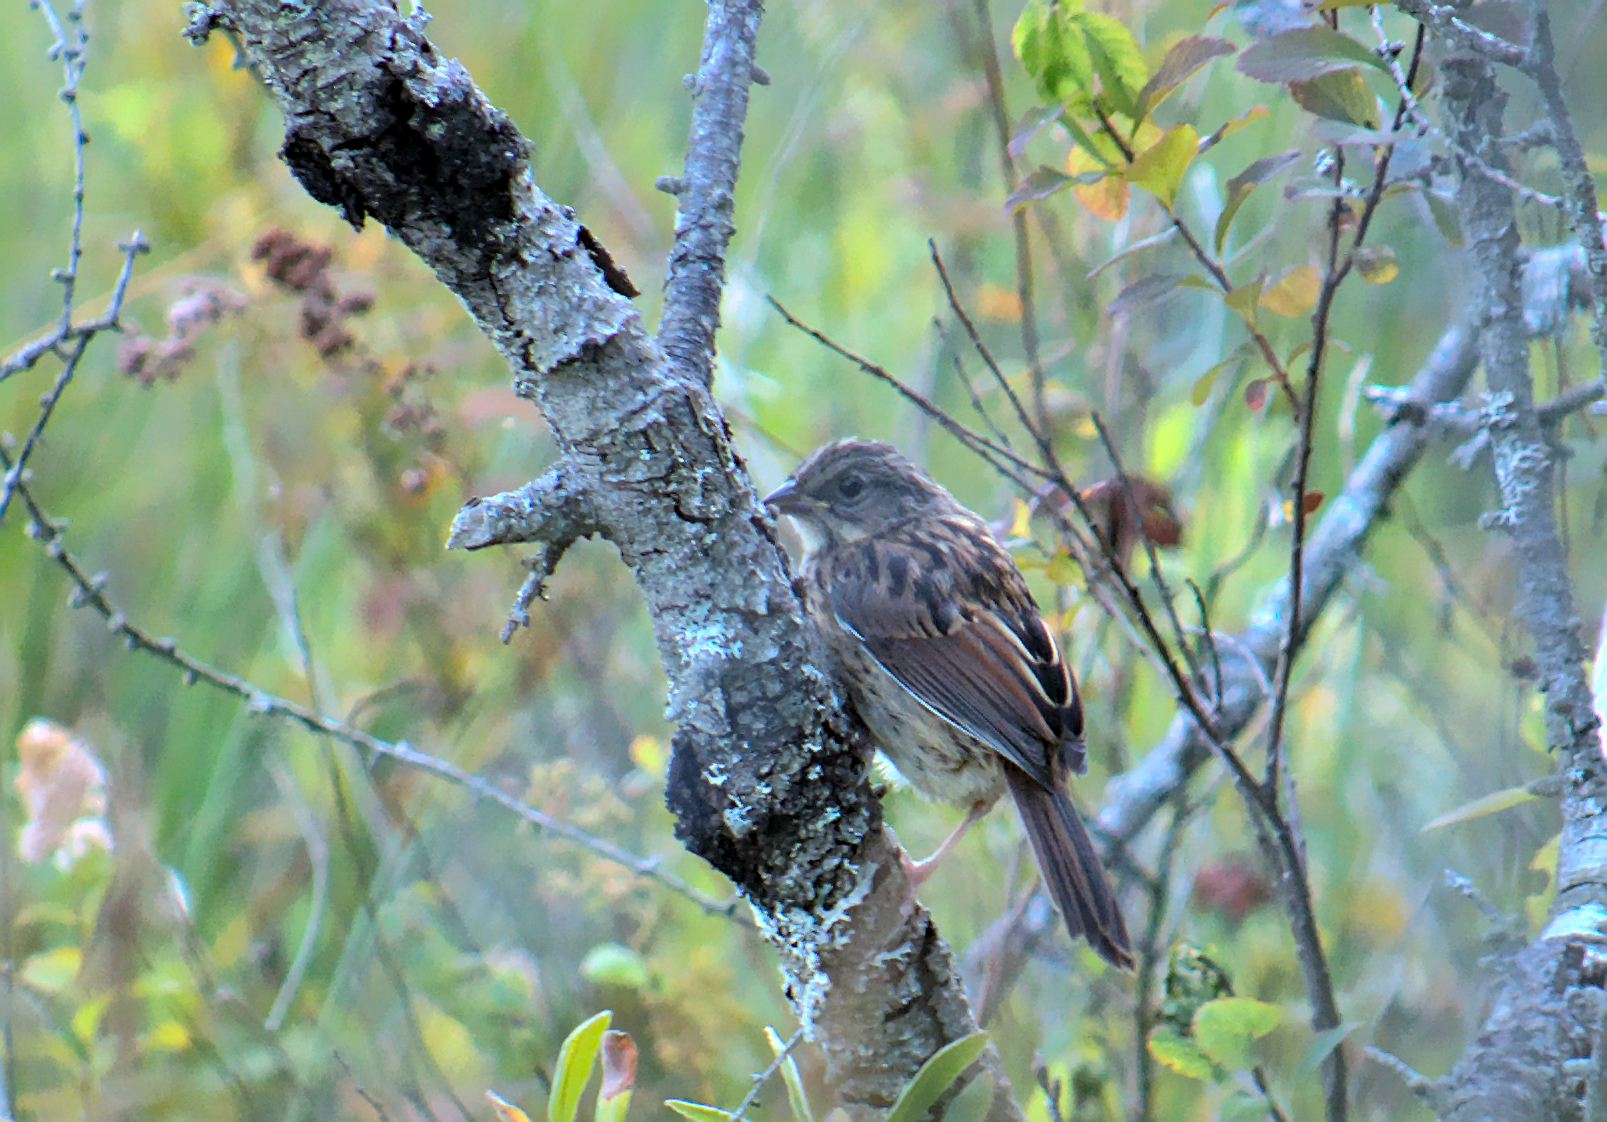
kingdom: Animalia
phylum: Chordata
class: Aves
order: Passeriformes
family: Passerellidae
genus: Melospiza
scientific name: Melospiza georgiana
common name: Swamp sparrow
